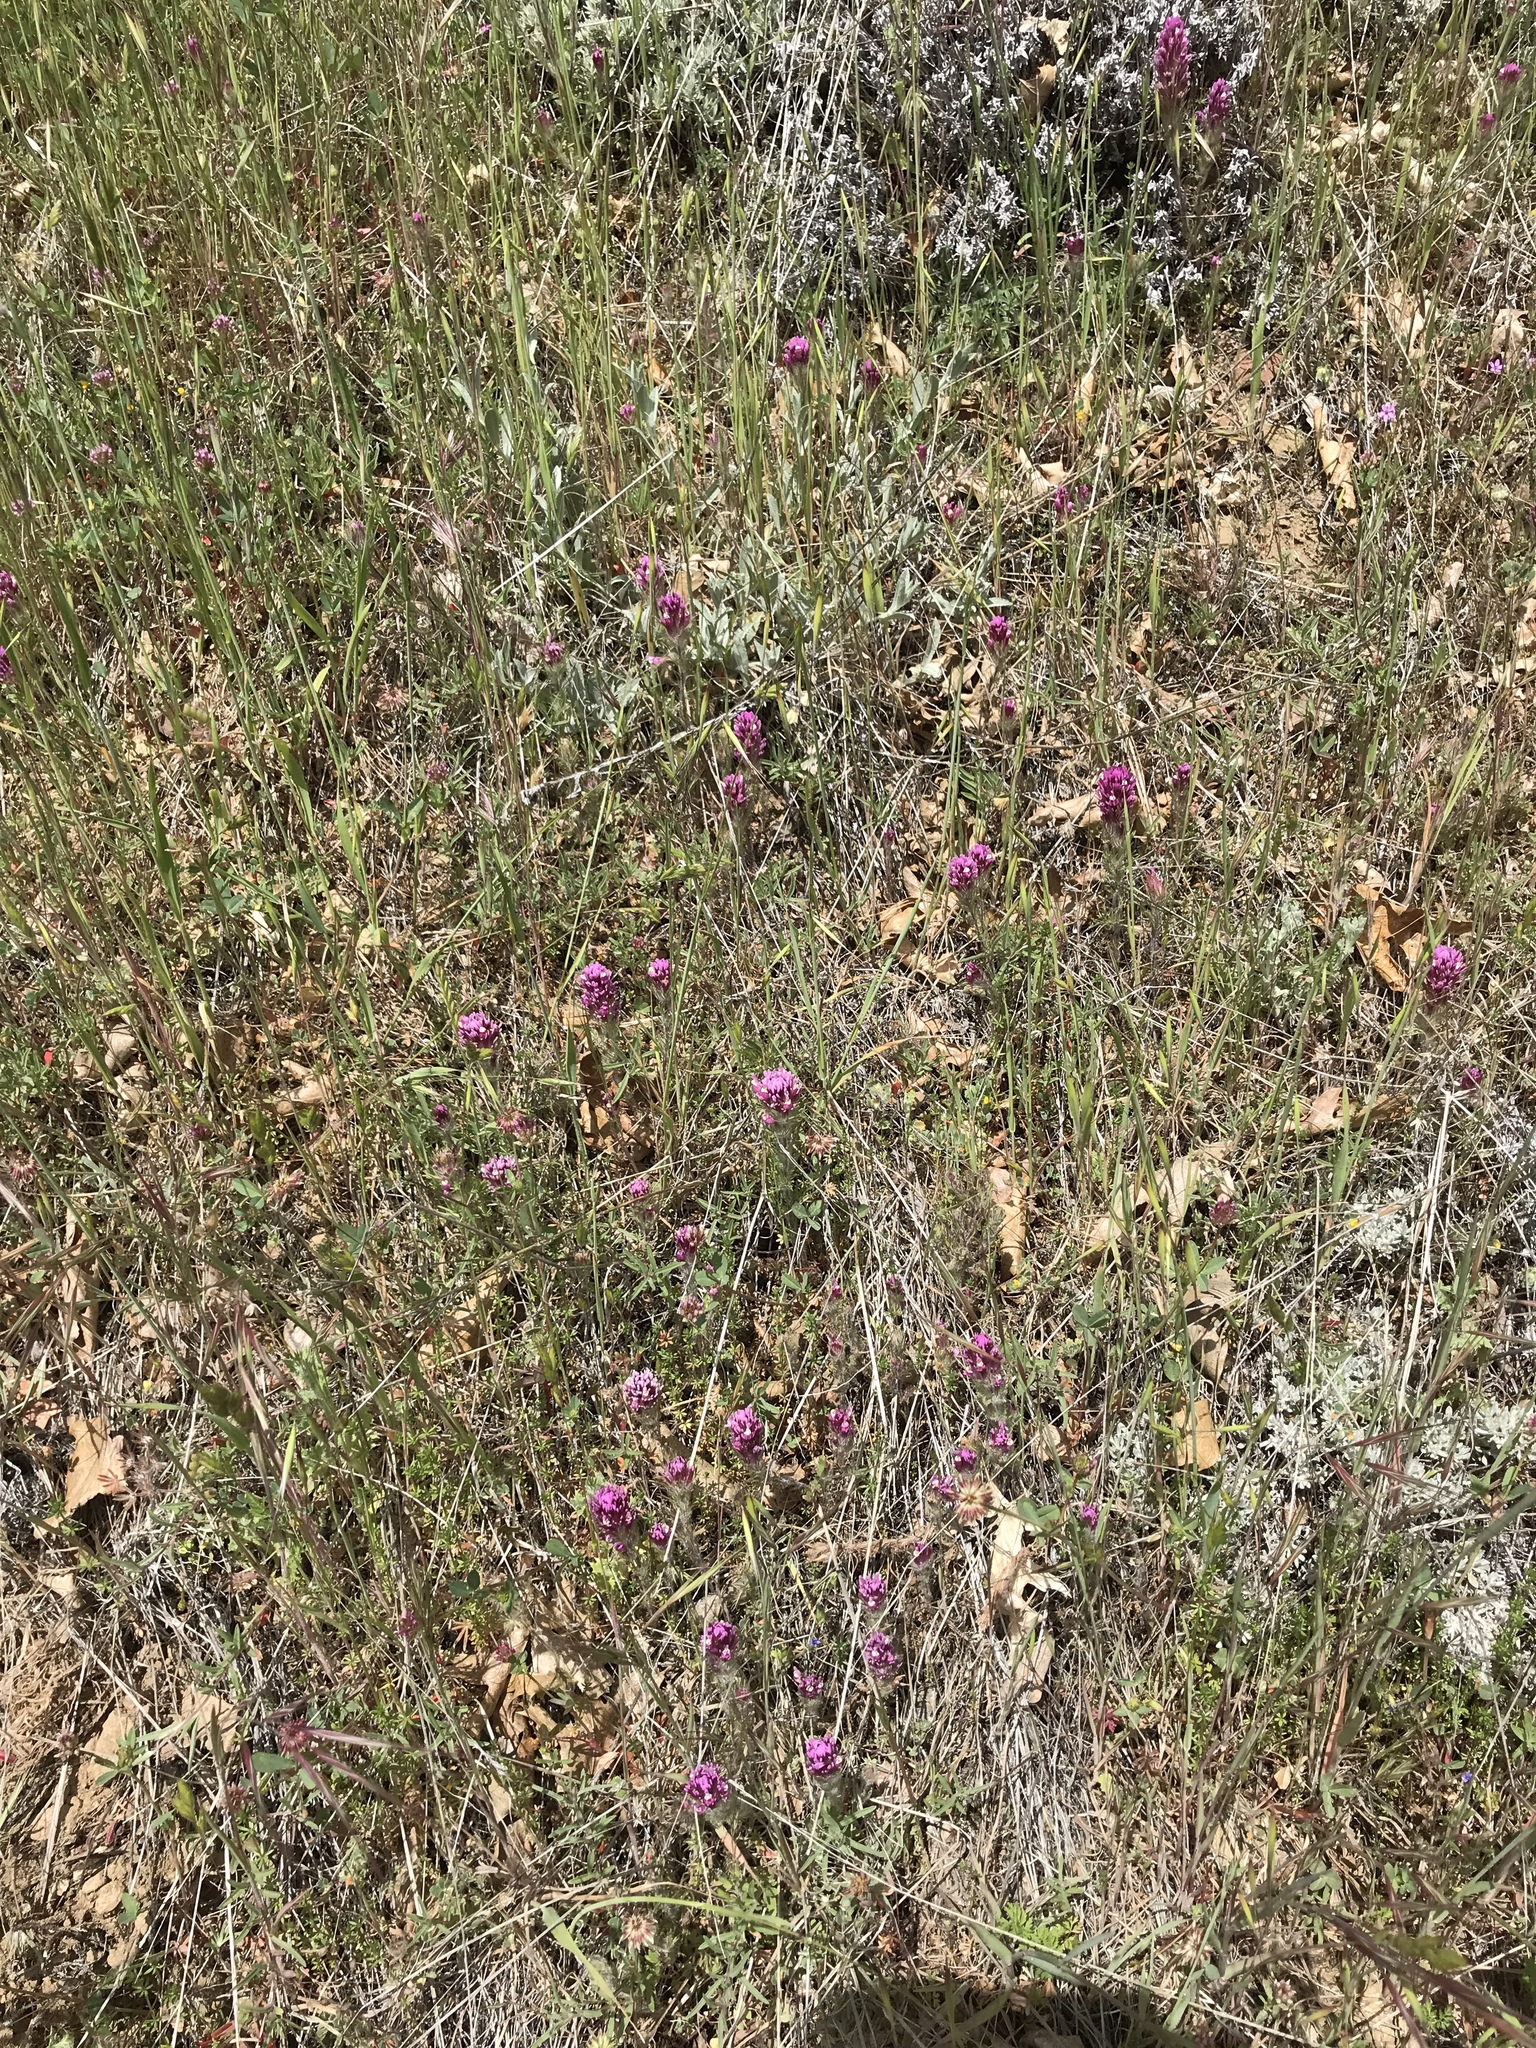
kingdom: Plantae
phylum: Tracheophyta
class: Magnoliopsida
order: Lamiales
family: Orobanchaceae
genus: Castilleja
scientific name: Castilleja exserta
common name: Purple owl-clover
